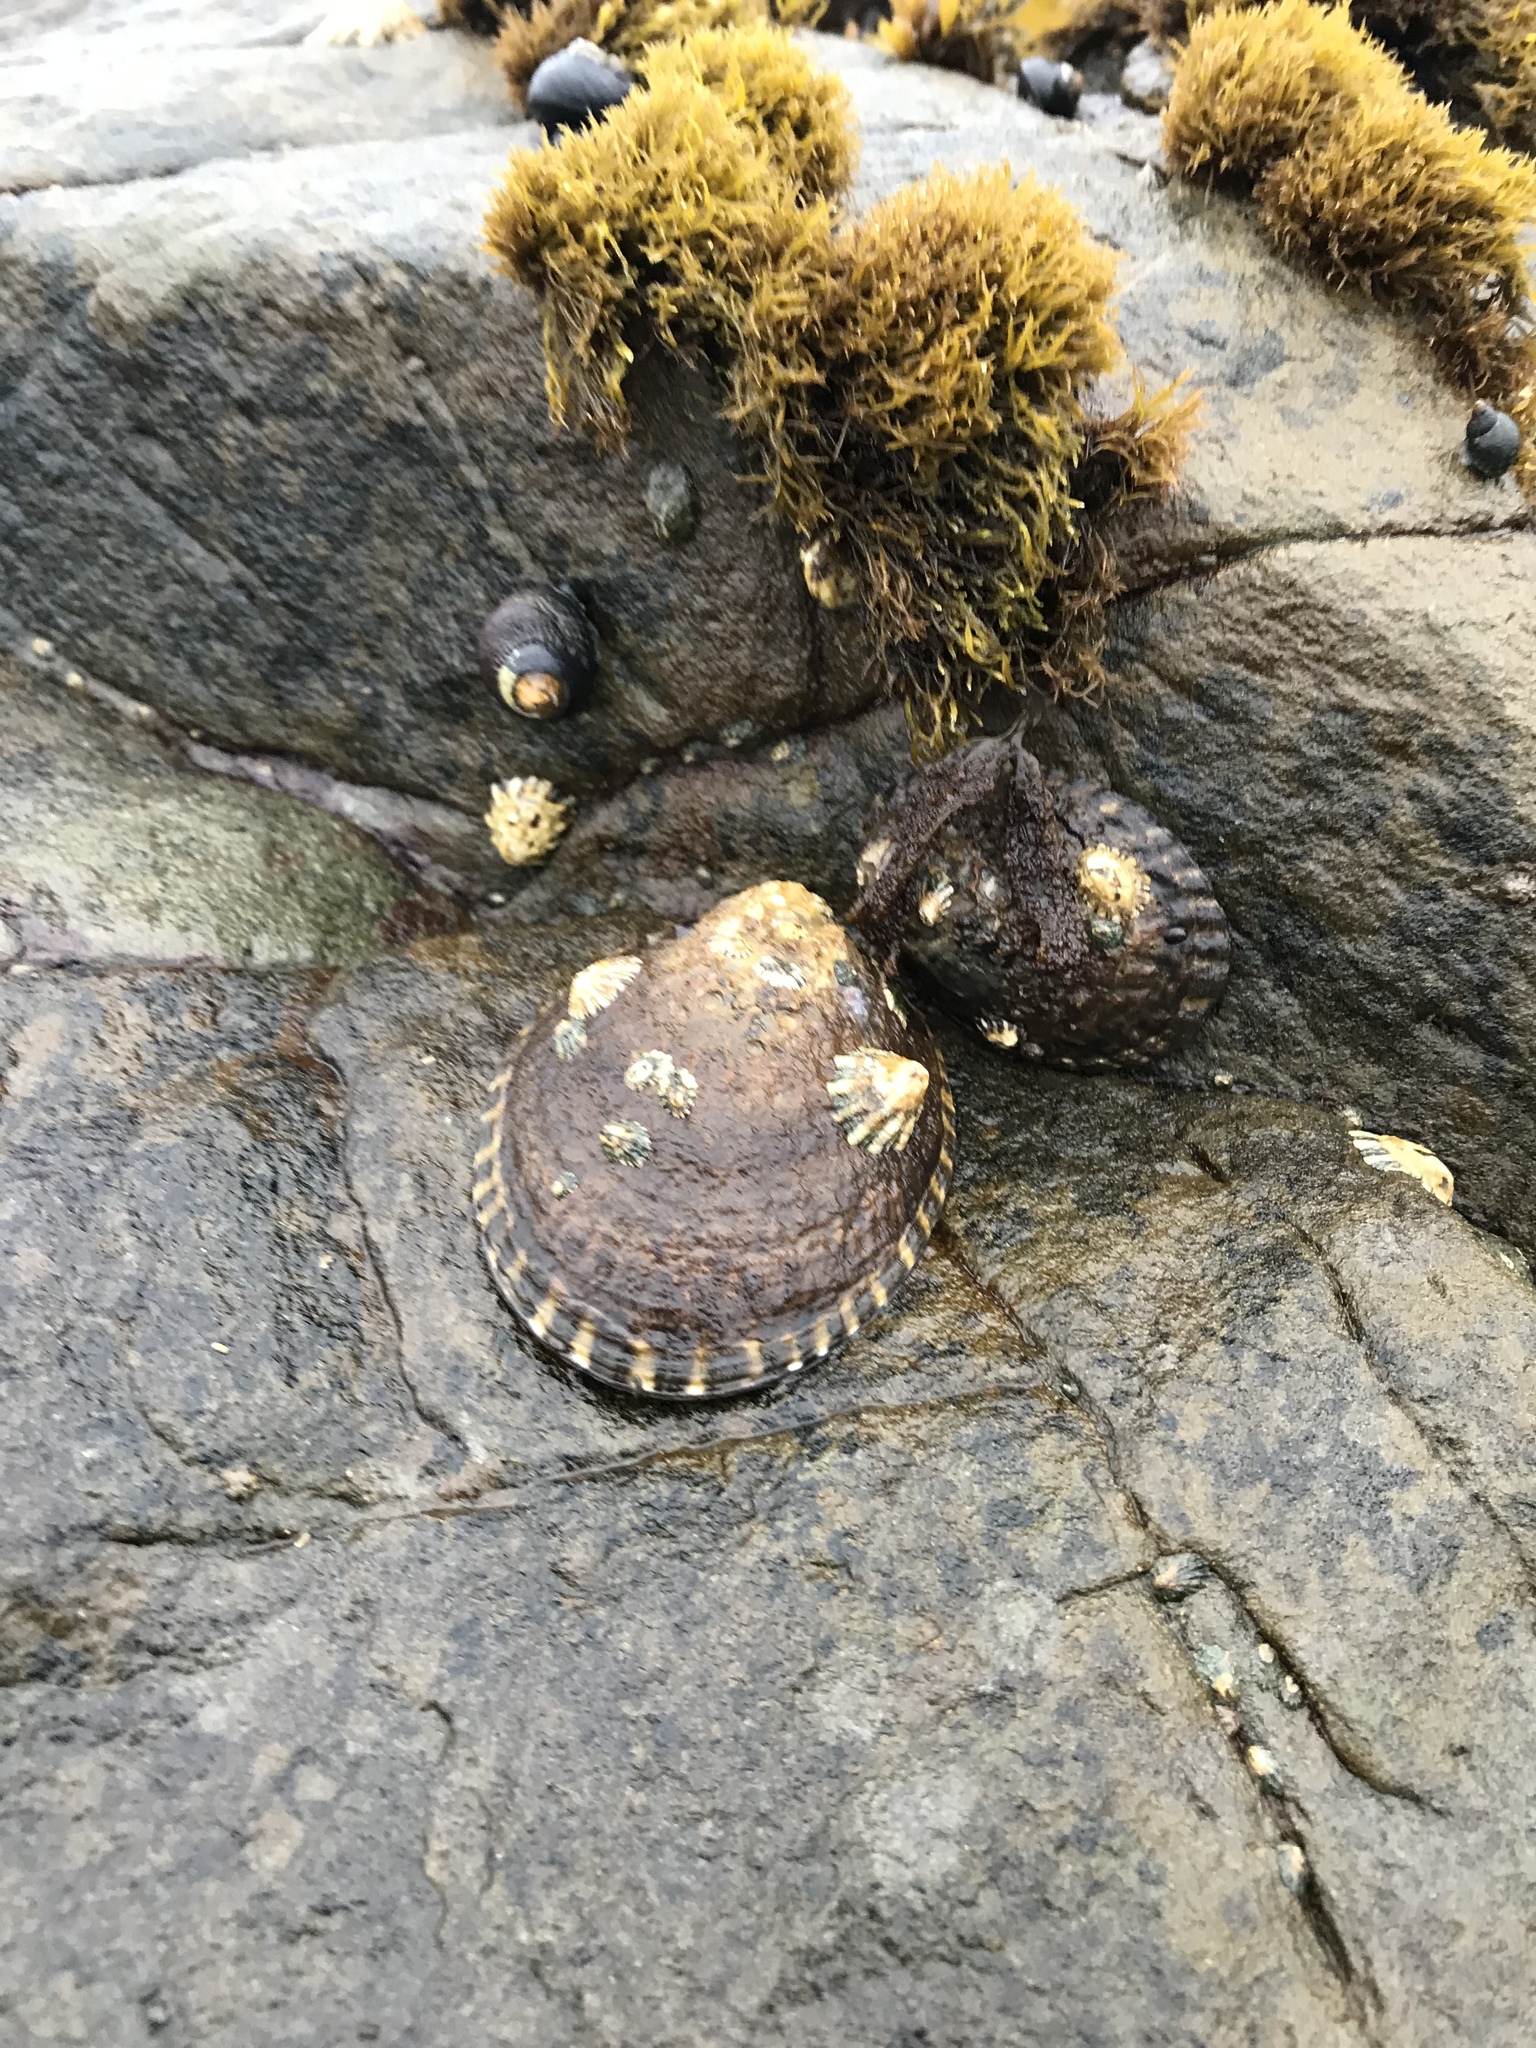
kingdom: Animalia
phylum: Mollusca
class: Gastropoda
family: Lottiidae
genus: Lottia
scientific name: Lottia gigantea
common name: Owl limpet
